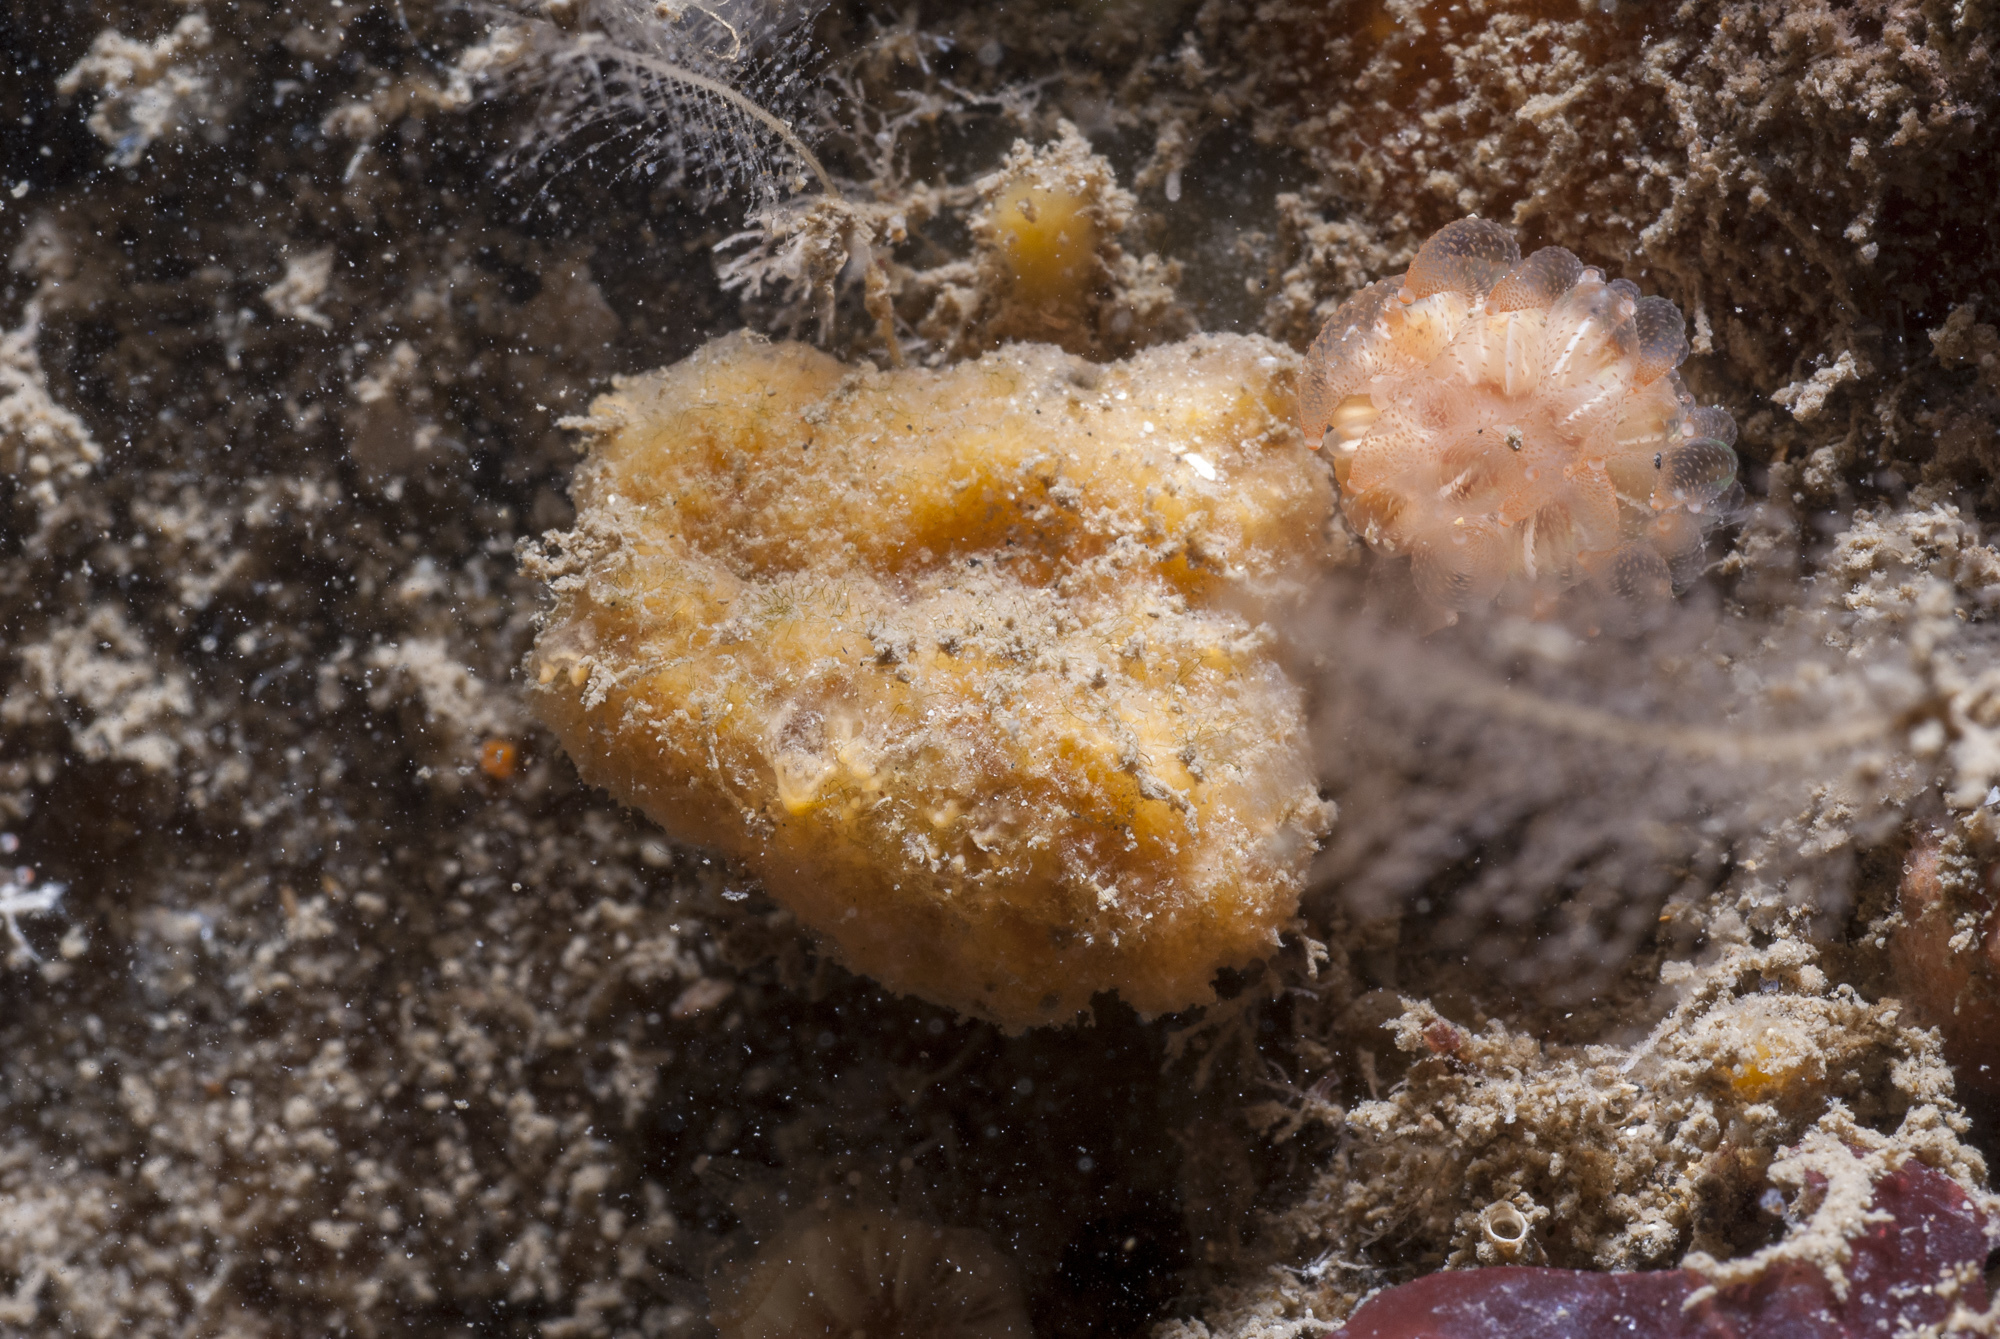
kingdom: Animalia
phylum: Porifera
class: Demospongiae
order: Axinellida
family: Axinellidae
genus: Axinella
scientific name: Axinella parva
